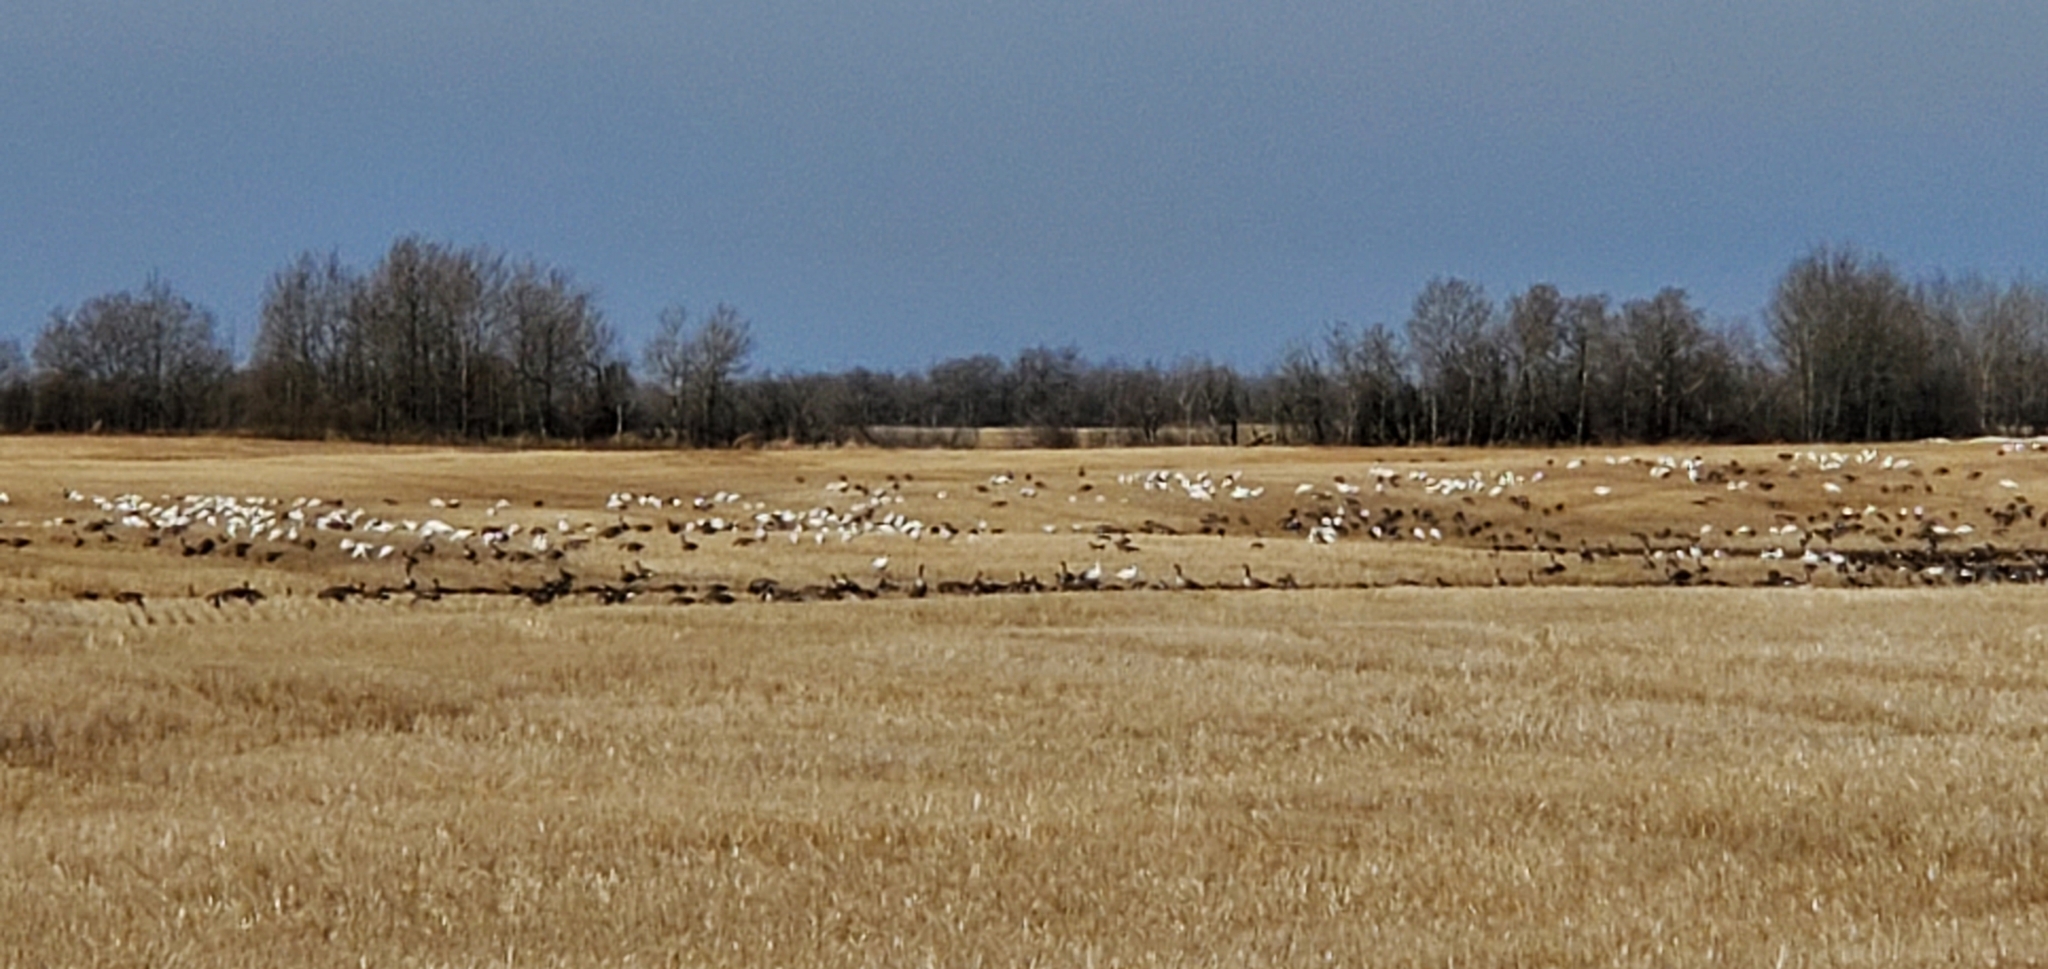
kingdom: Animalia
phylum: Chordata
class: Aves
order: Anseriformes
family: Anatidae
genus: Anser
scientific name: Anser caerulescens
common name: Snow goose
